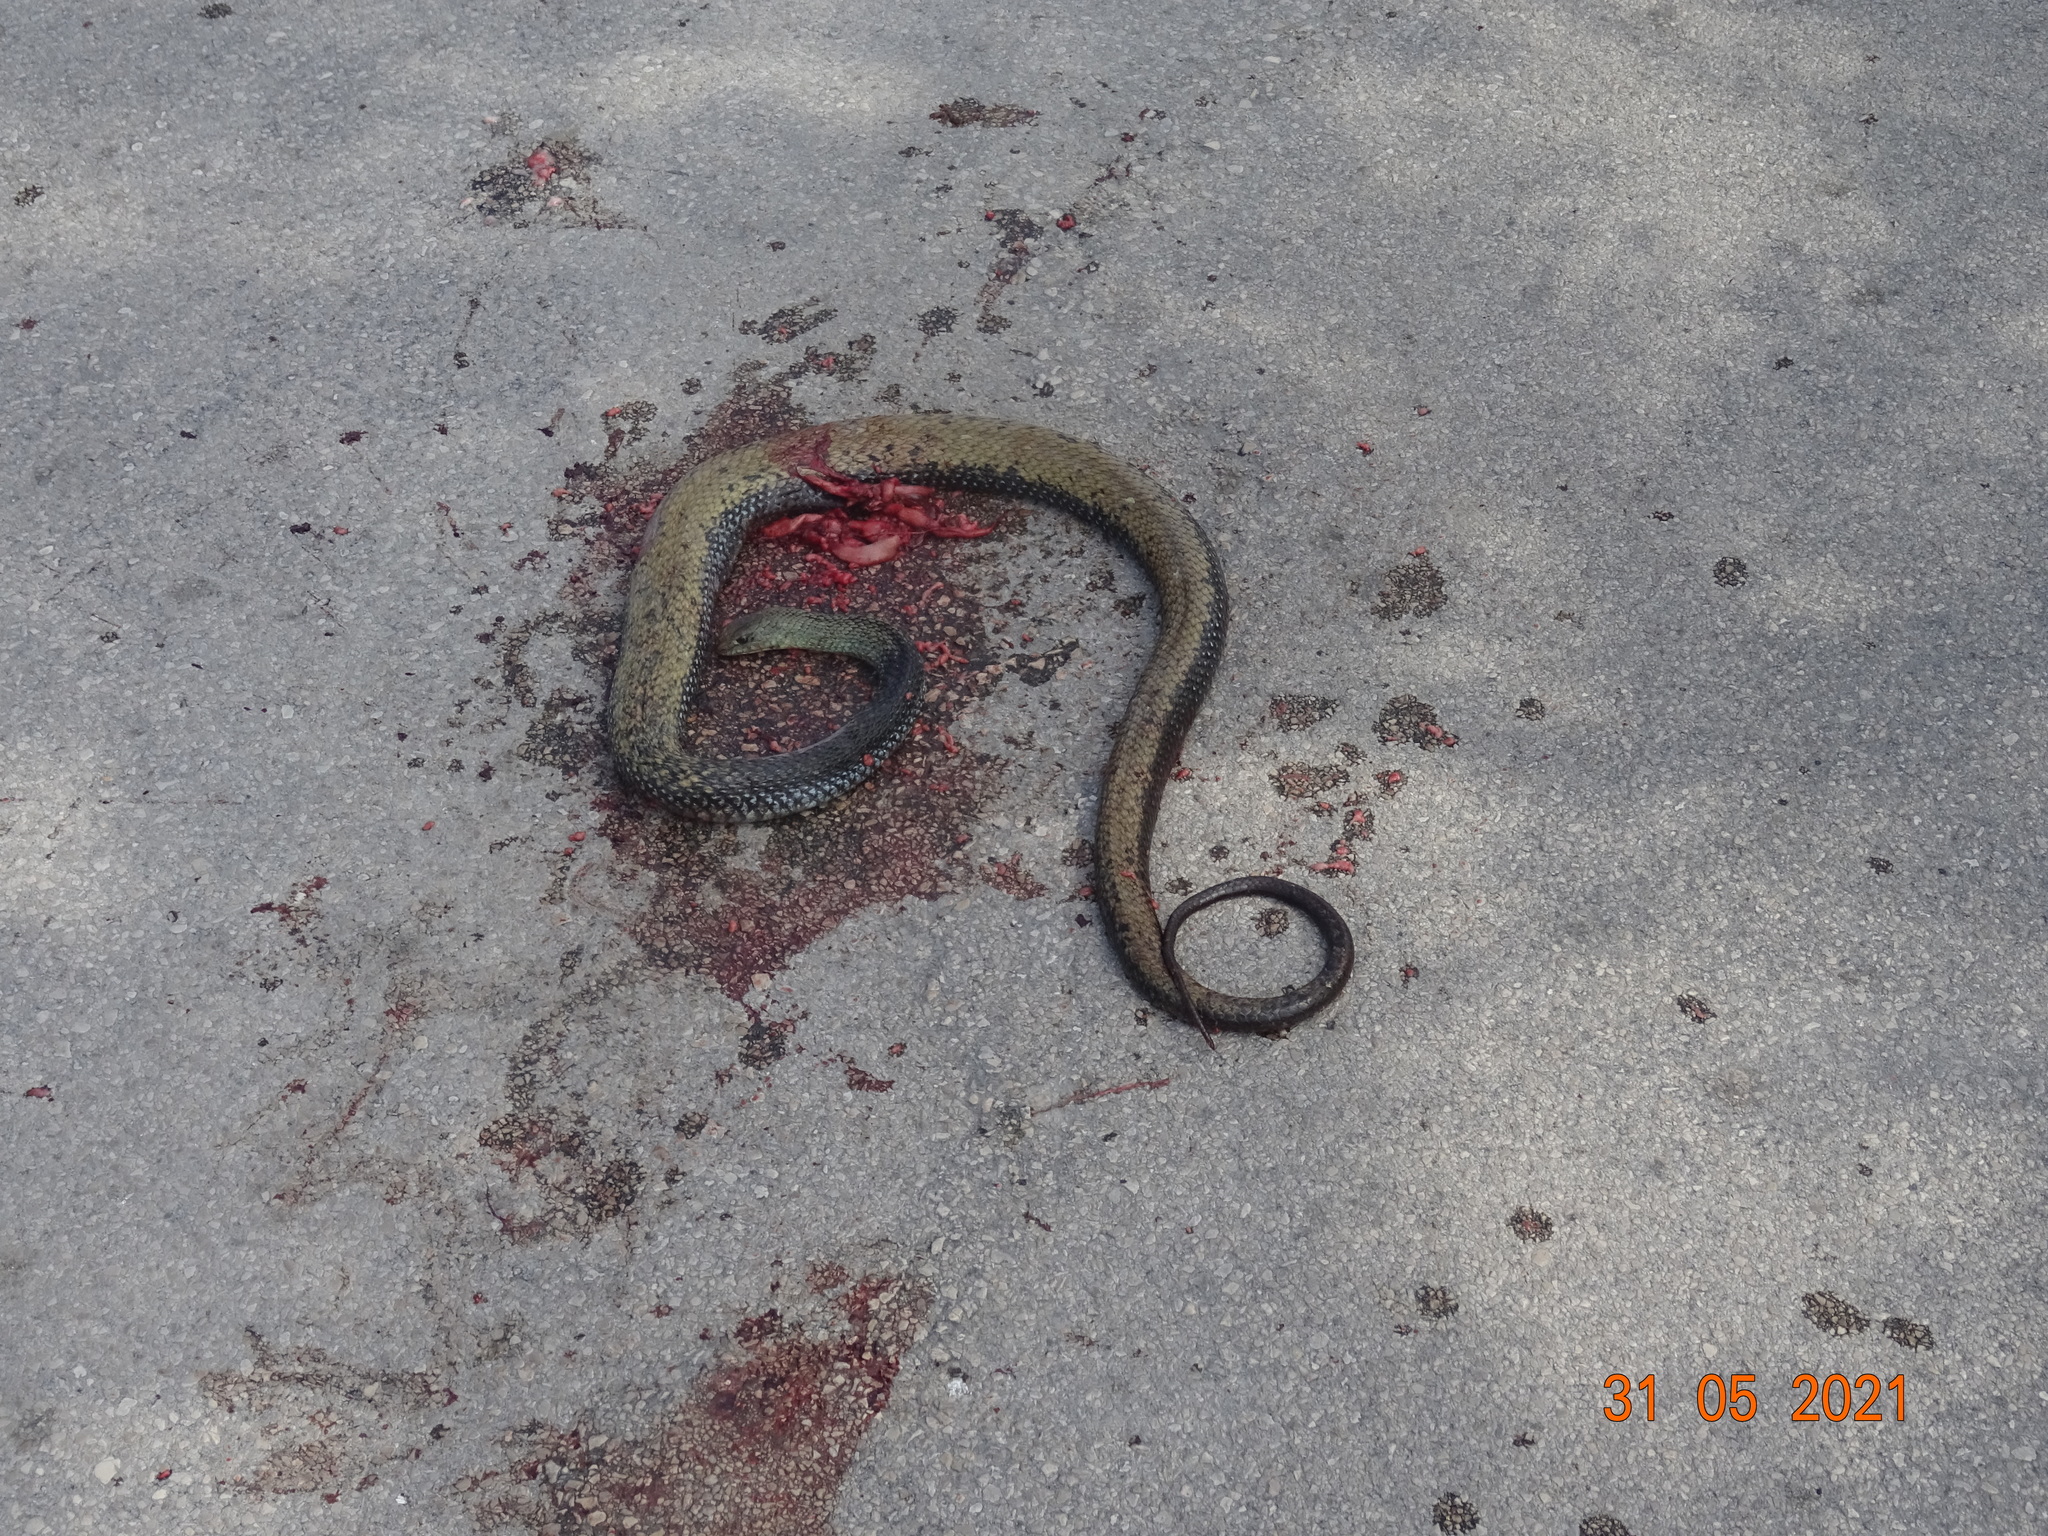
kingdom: Animalia
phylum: Chordata
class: Squamata
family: Psammophiidae
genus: Malpolon
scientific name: Malpolon monspessulanus
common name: Montpellier snake
